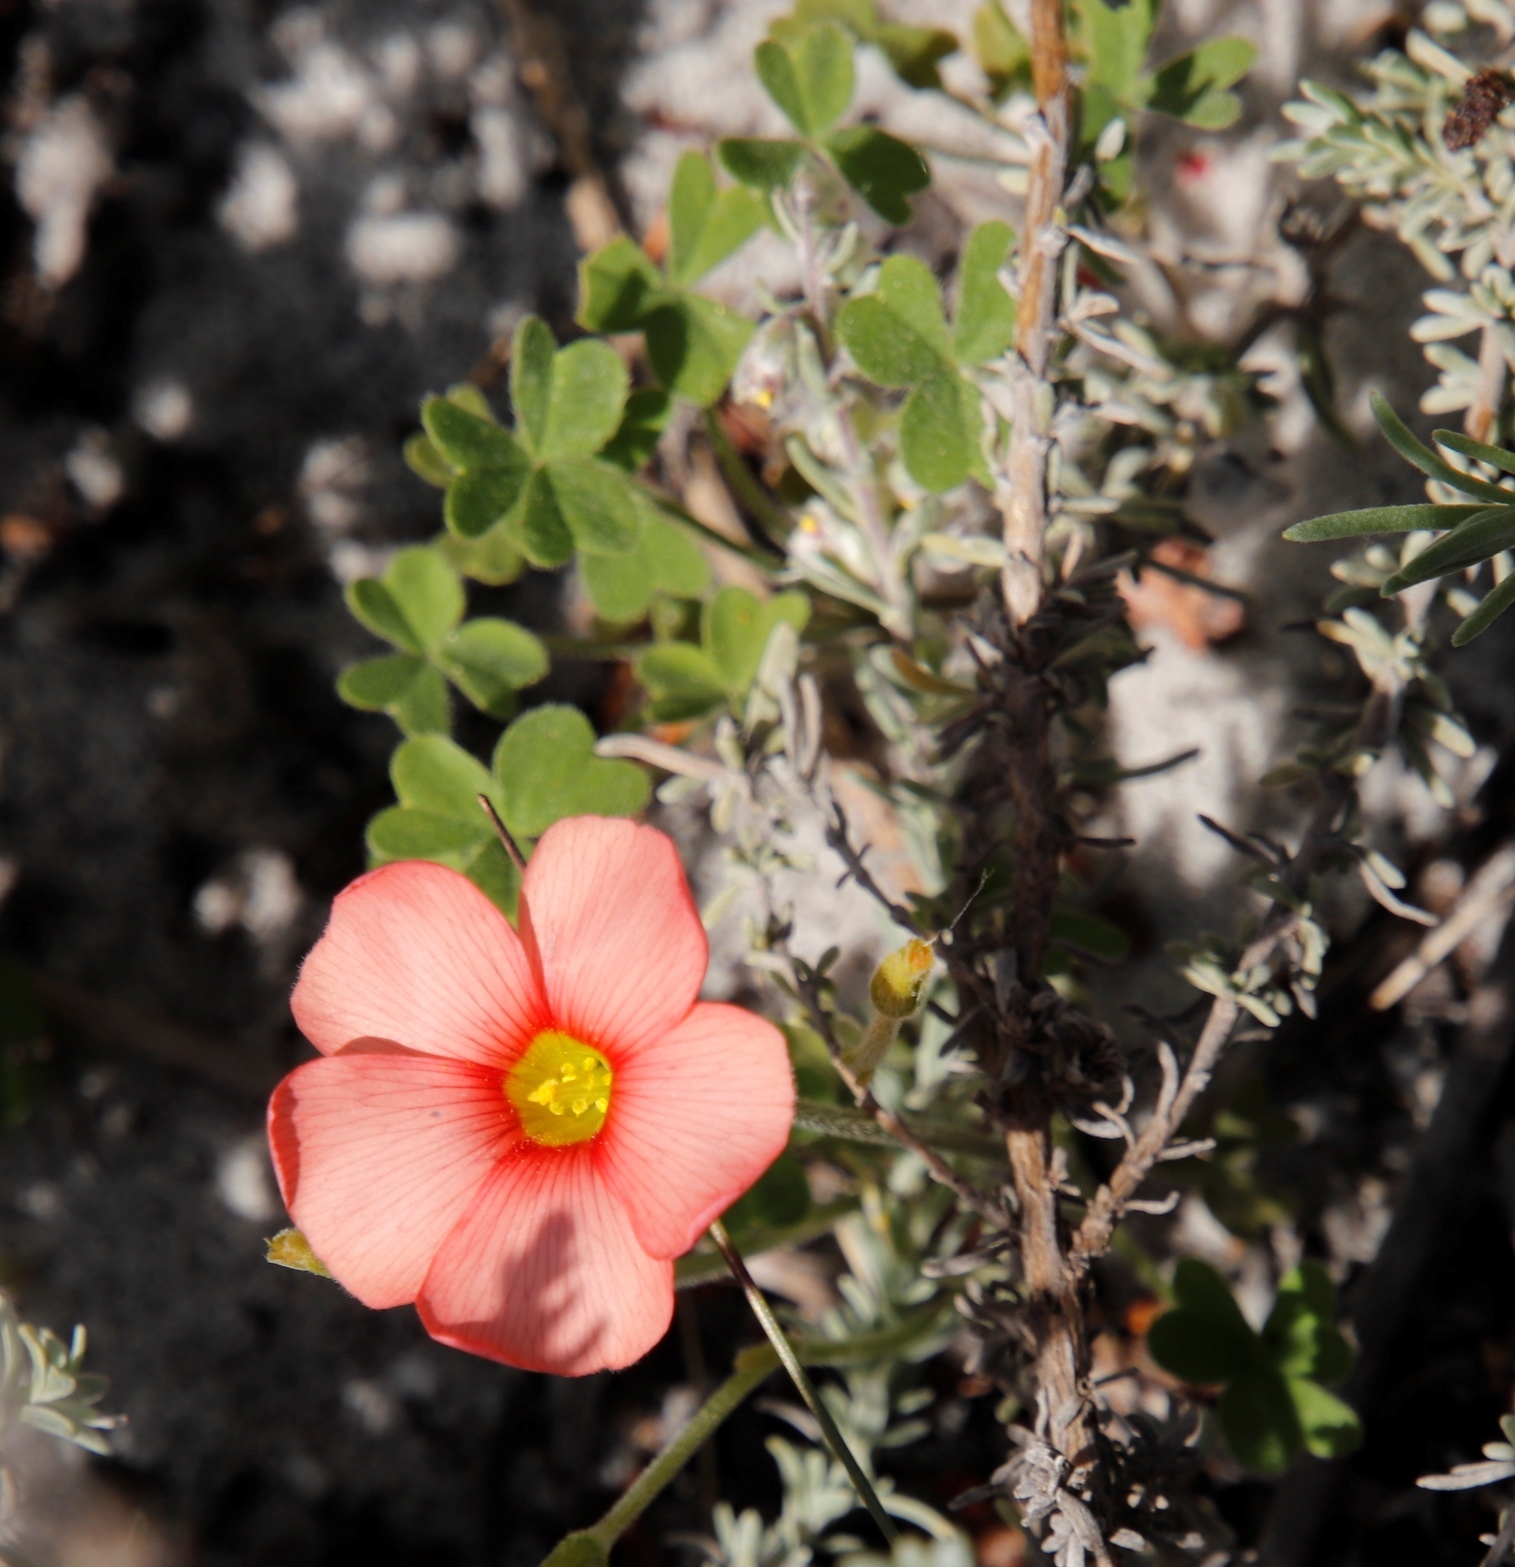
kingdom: Plantae
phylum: Tracheophyta
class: Magnoliopsida
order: Oxalidales
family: Oxalidaceae
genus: Oxalis
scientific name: Oxalis obtusa
